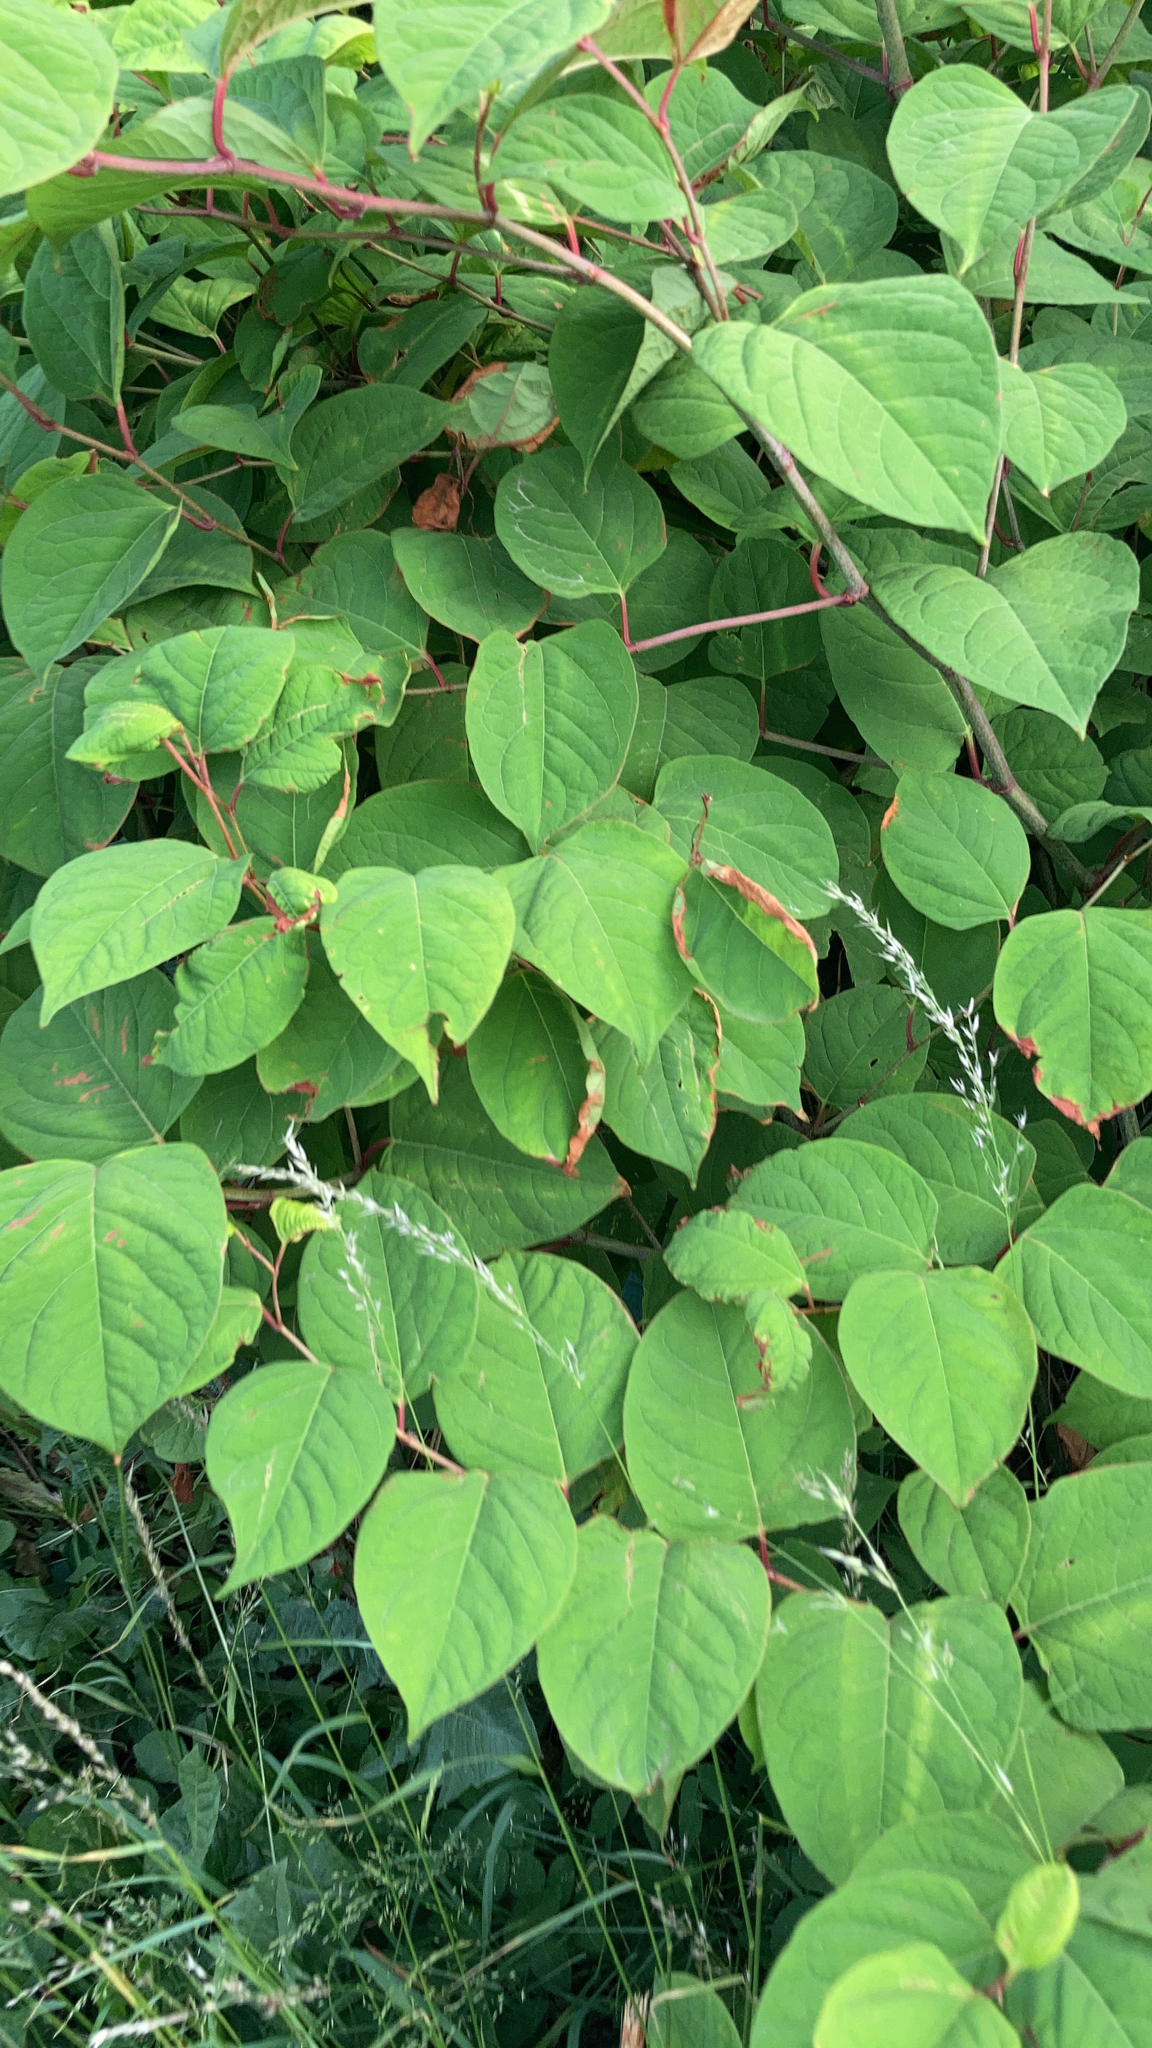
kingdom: Plantae
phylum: Tracheophyta
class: Magnoliopsida
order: Caryophyllales
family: Polygonaceae
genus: Reynoutria
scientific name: Reynoutria japonica
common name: Japanese knotweed
